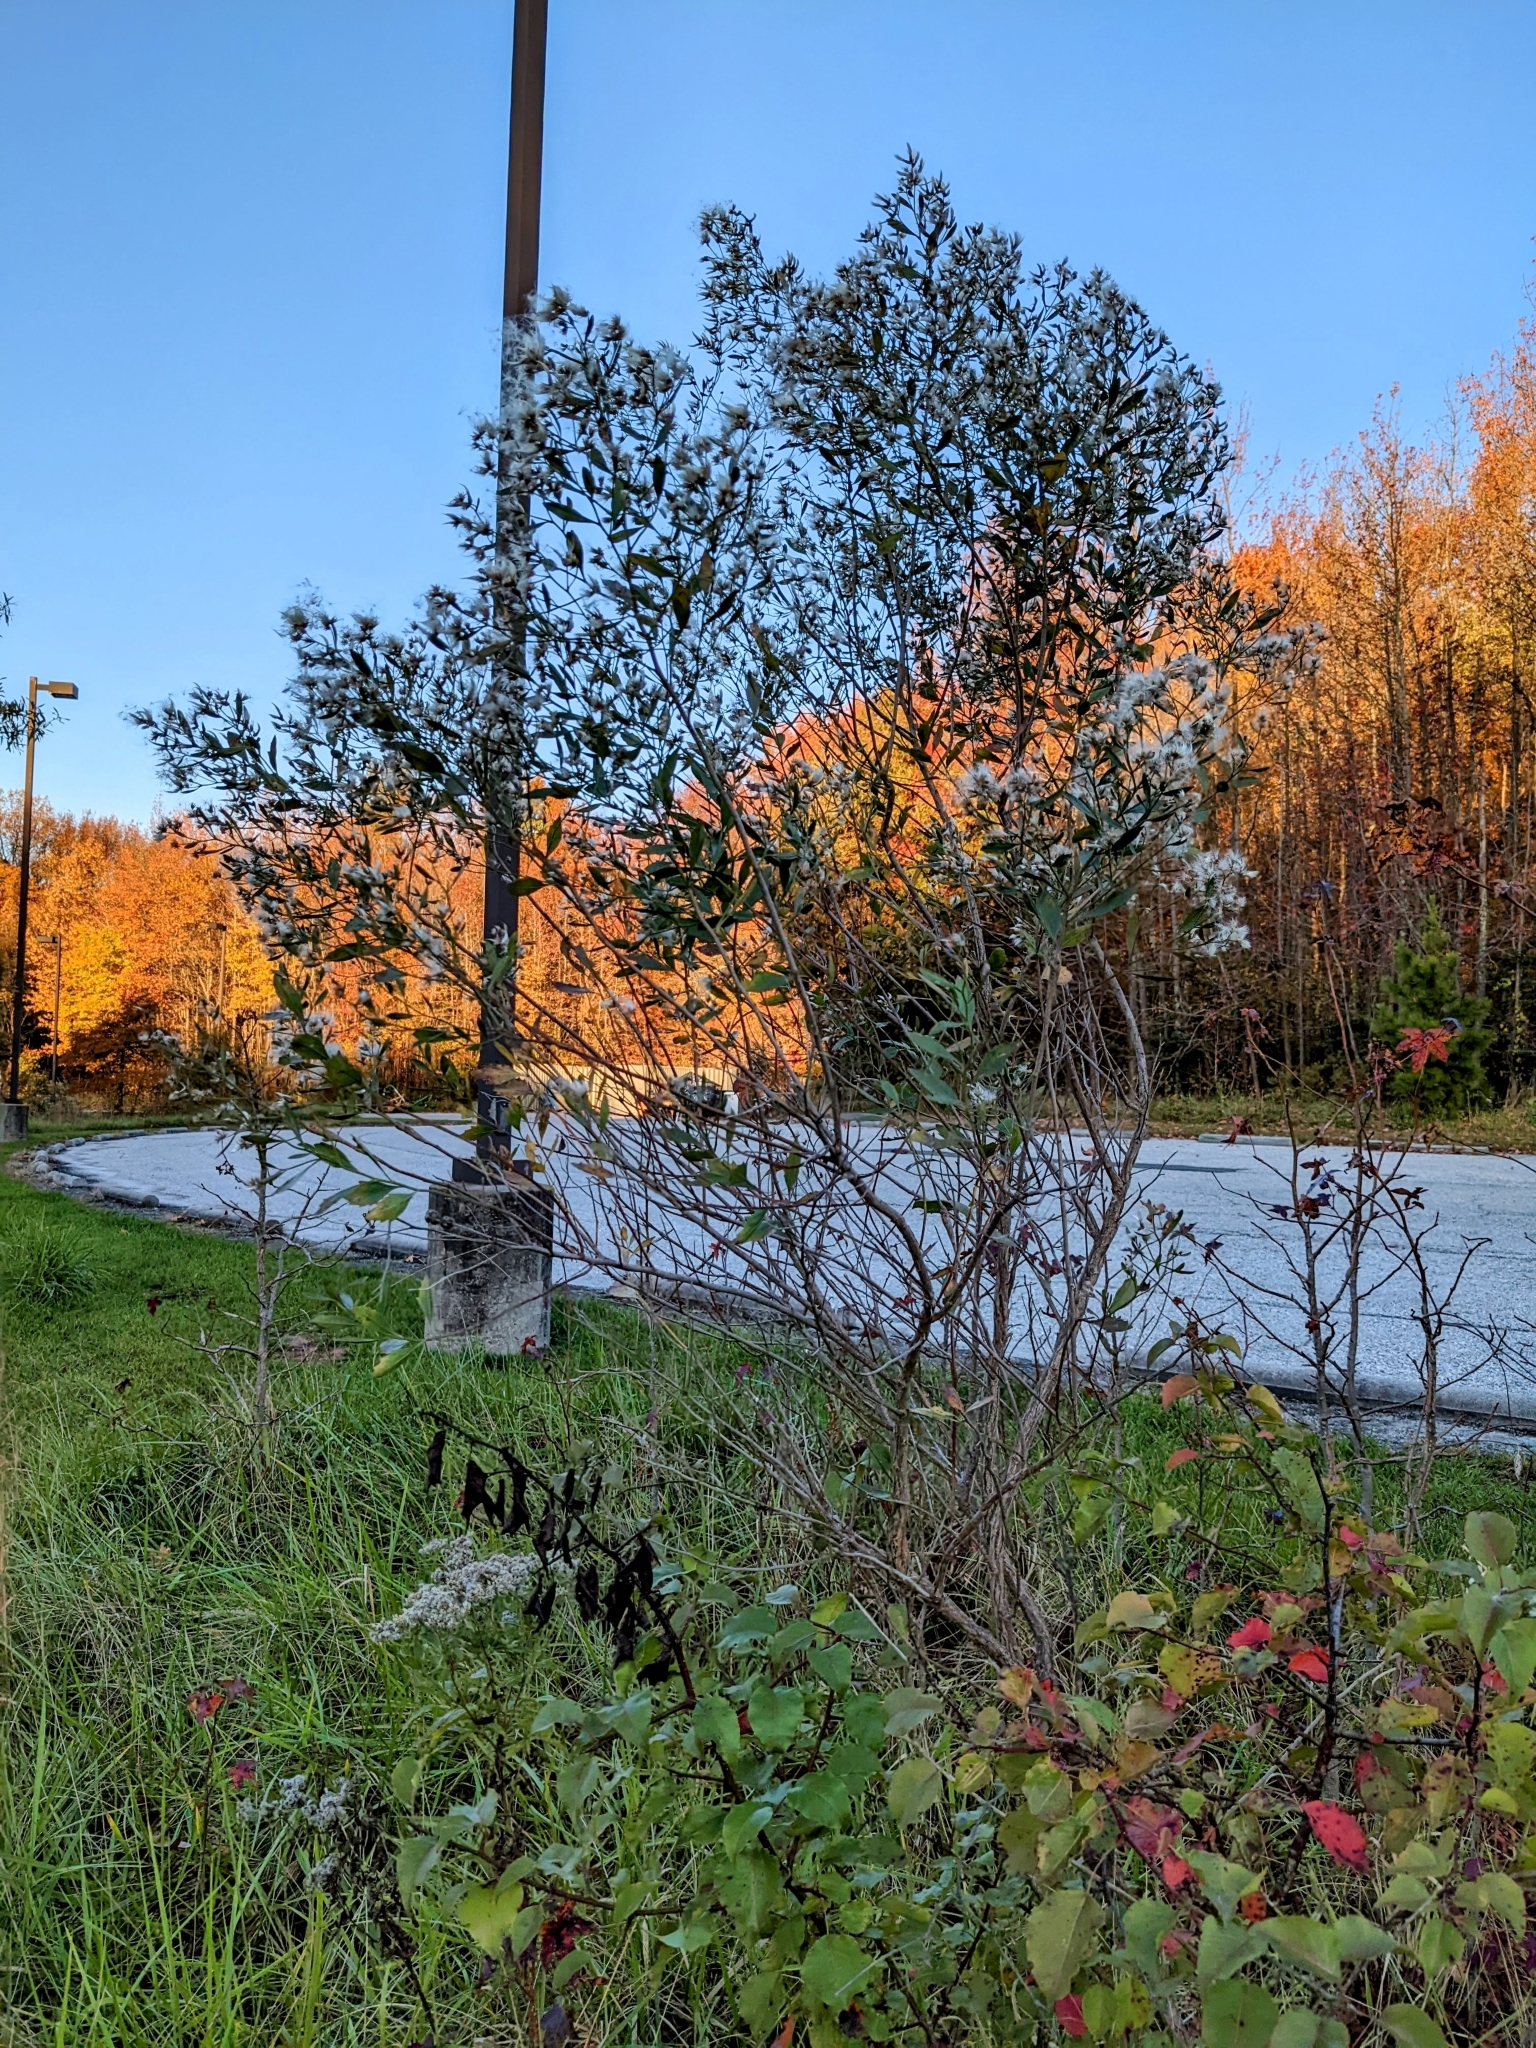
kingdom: Animalia
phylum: Arthropoda
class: Insecta
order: Diptera
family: Cecidomyiidae
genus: Neolasioptera
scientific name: Neolasioptera lathami
